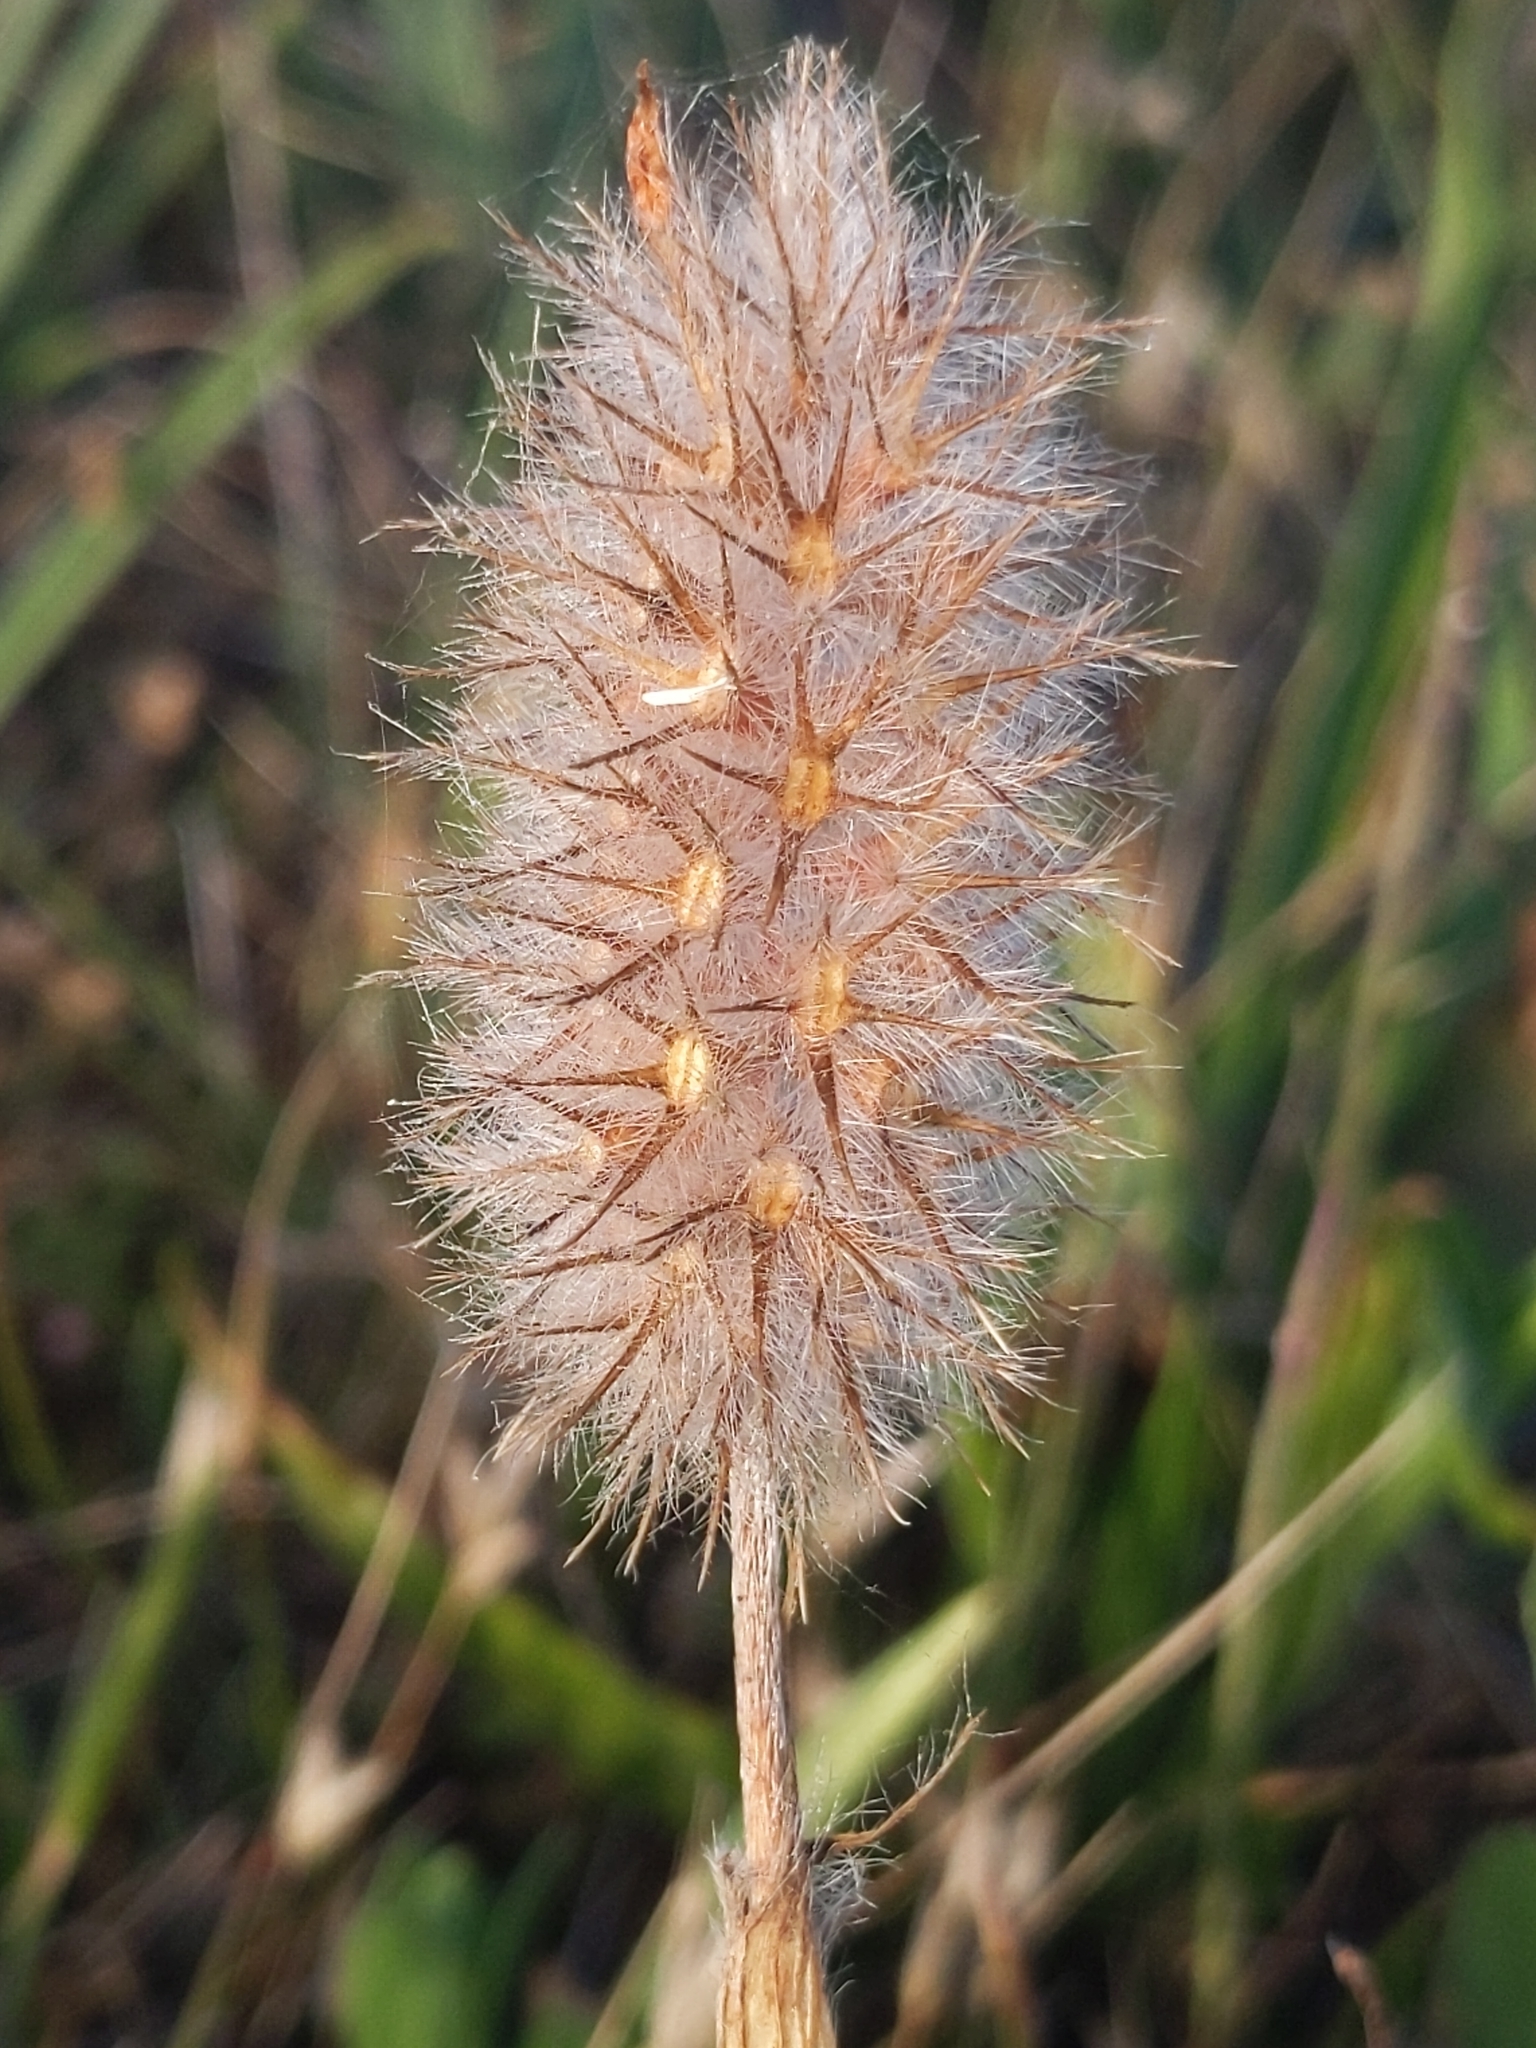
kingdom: Plantae
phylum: Tracheophyta
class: Magnoliopsida
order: Fabales
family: Fabaceae
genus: Trifolium
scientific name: Trifolium angustifolium
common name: Narrow clover
